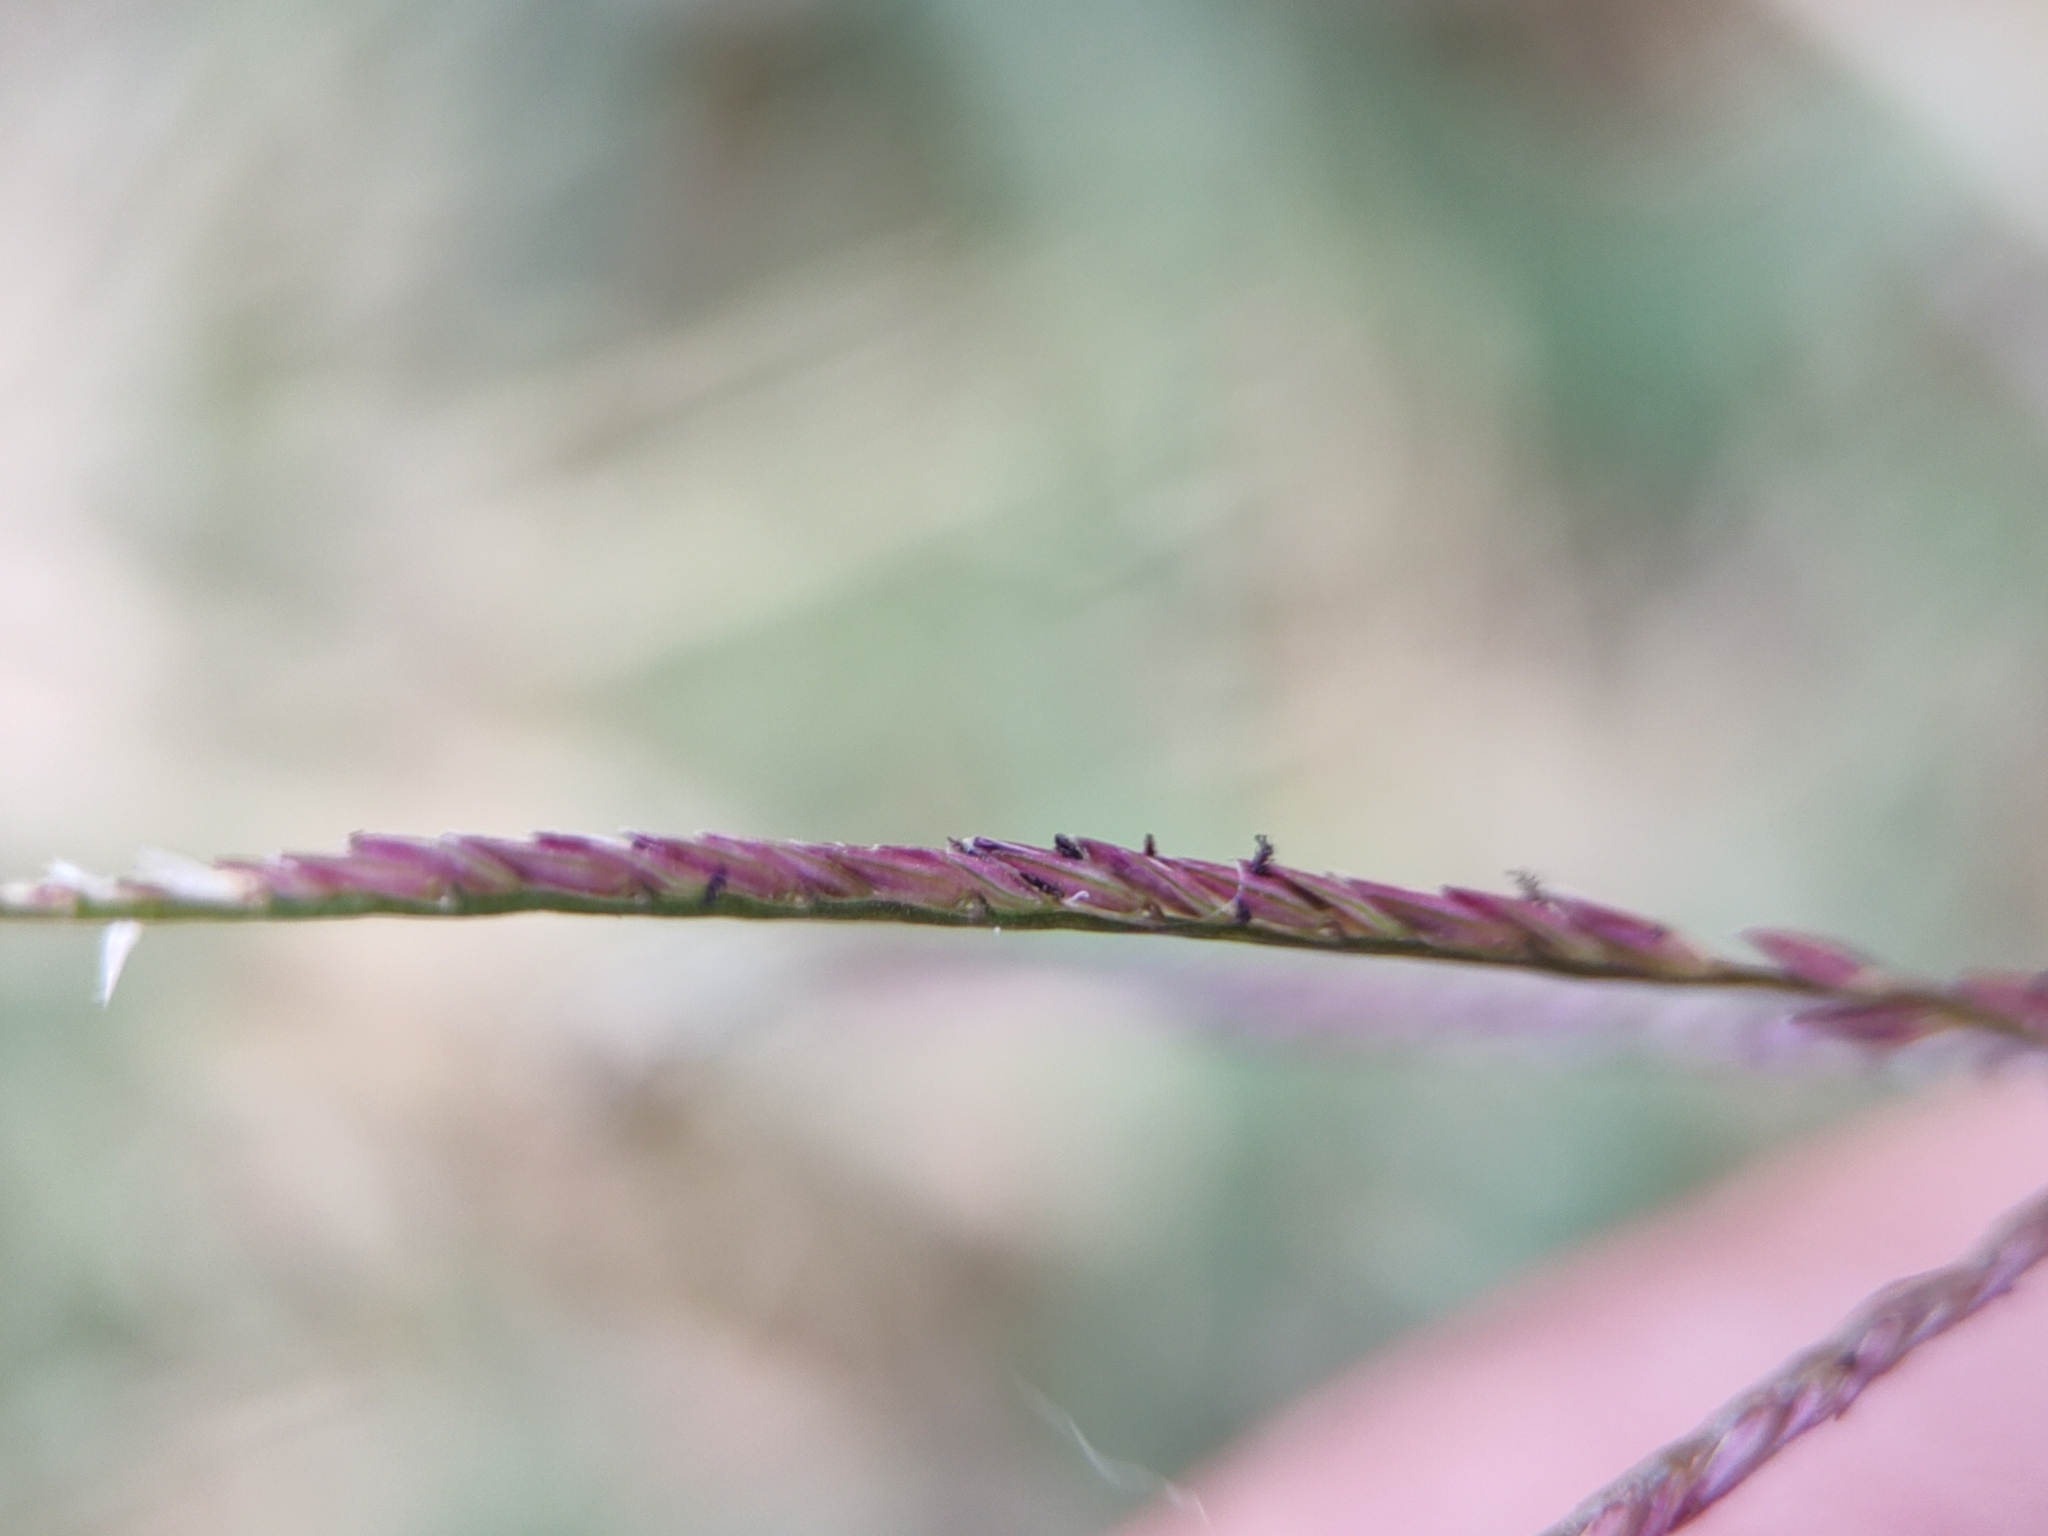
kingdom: Plantae
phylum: Tracheophyta
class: Liliopsida
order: Poales
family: Poaceae
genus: Cynodon
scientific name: Cynodon dactylon
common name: Bermuda grass
